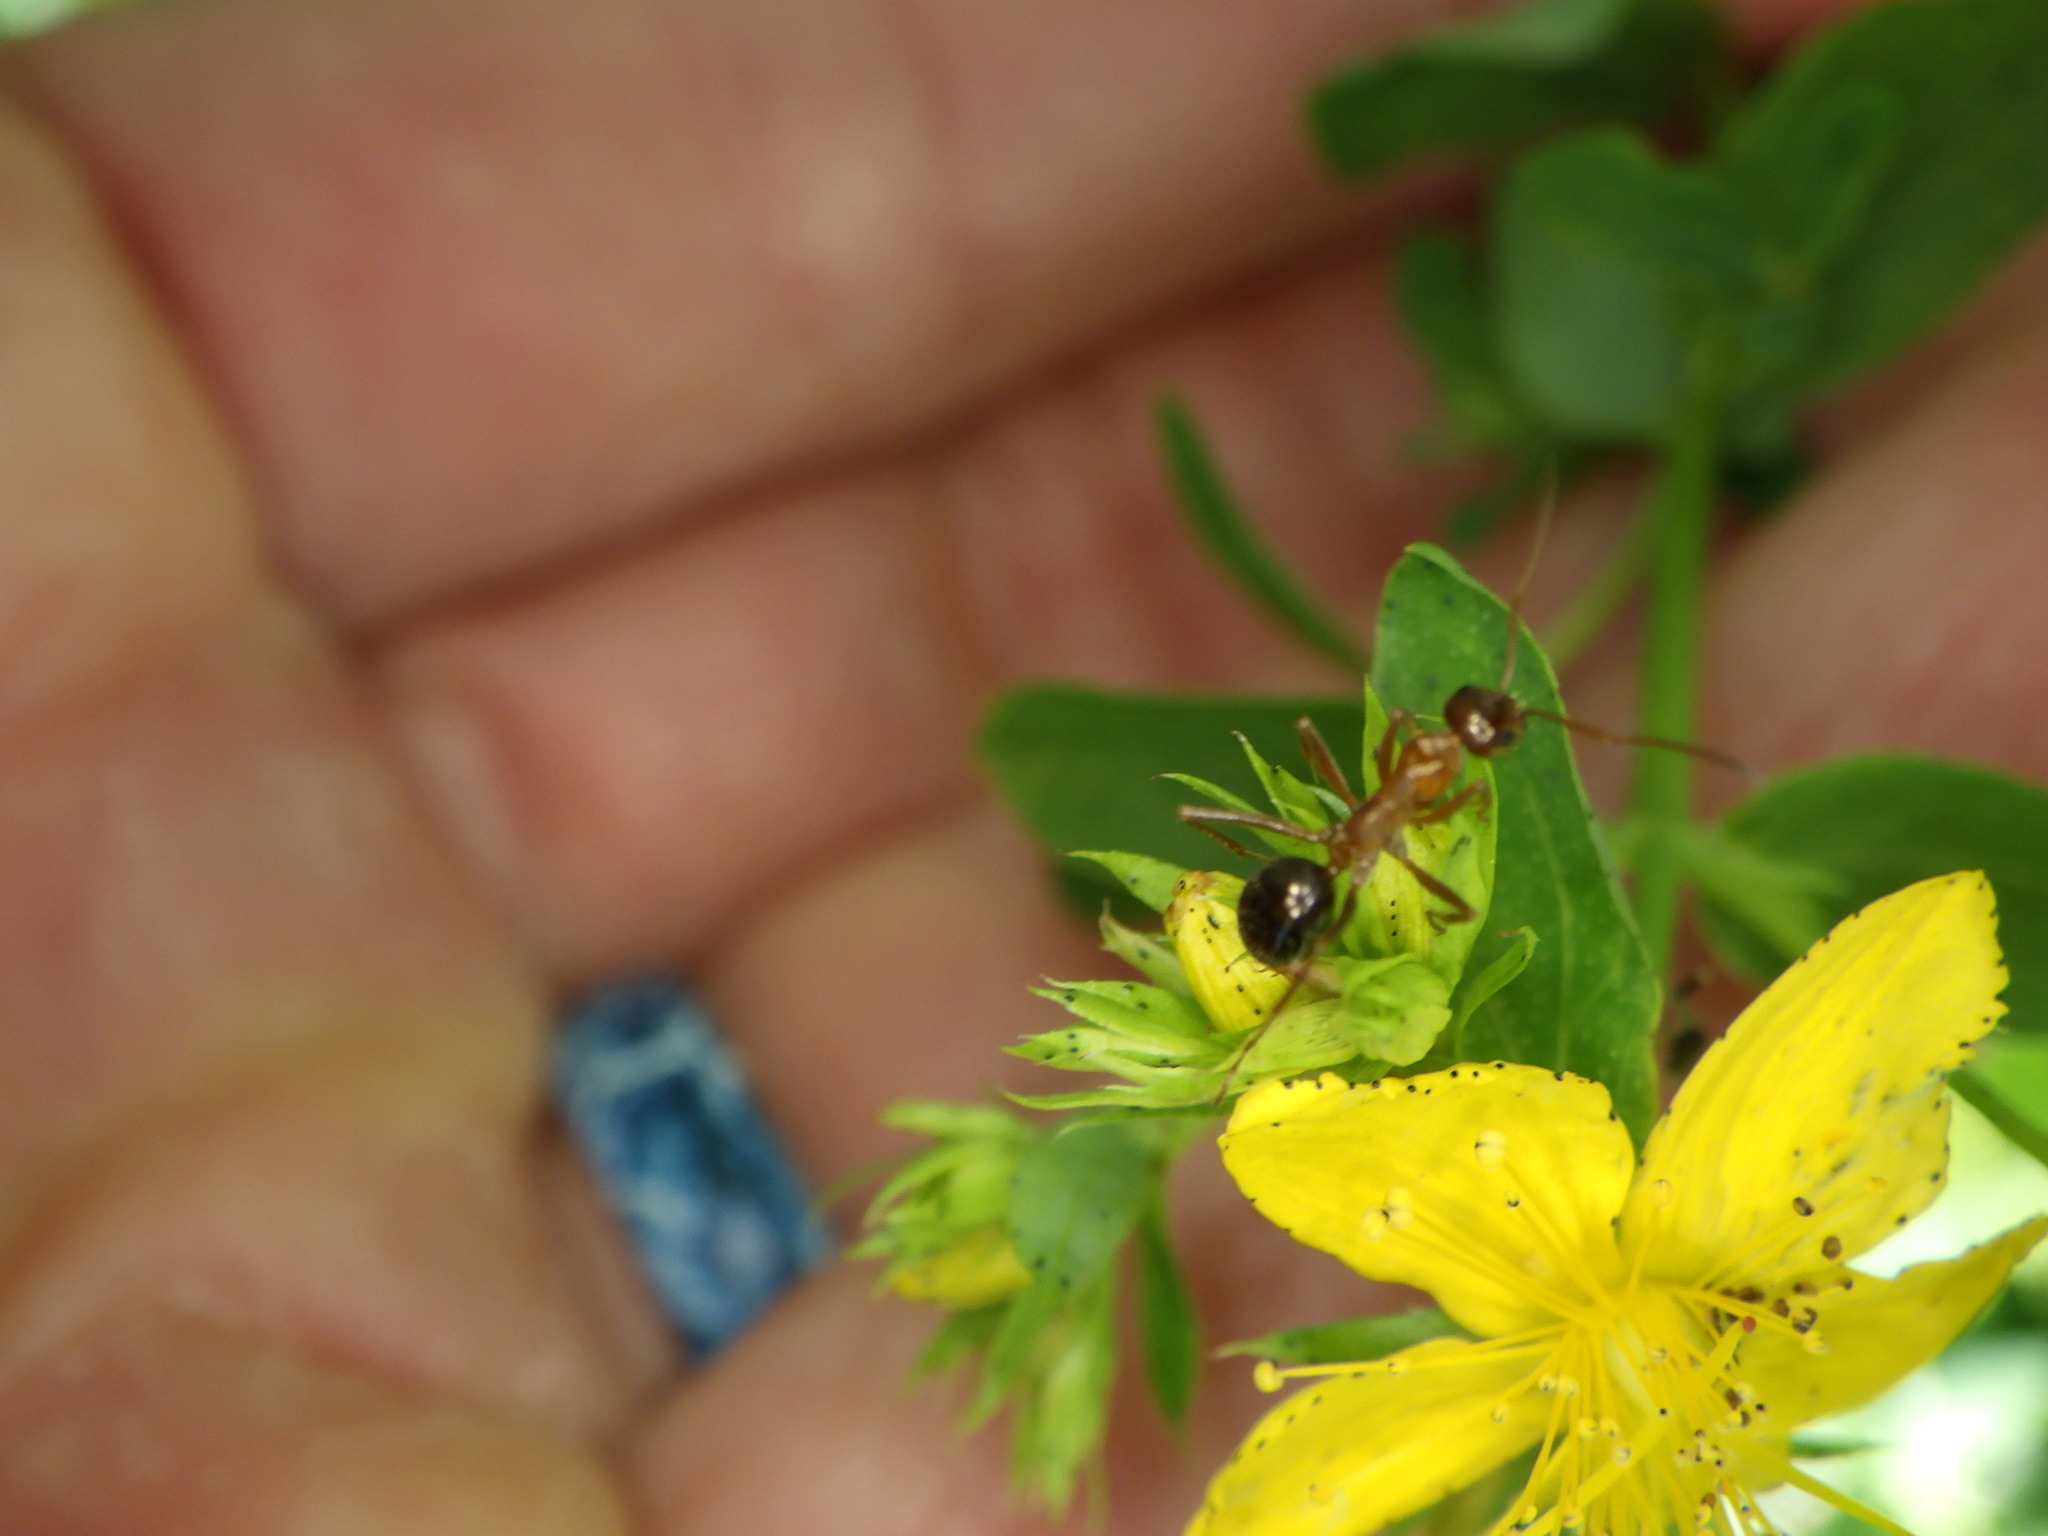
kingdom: Animalia
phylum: Arthropoda
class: Insecta
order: Hymenoptera
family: Formicidae
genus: Formica
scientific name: Formica
